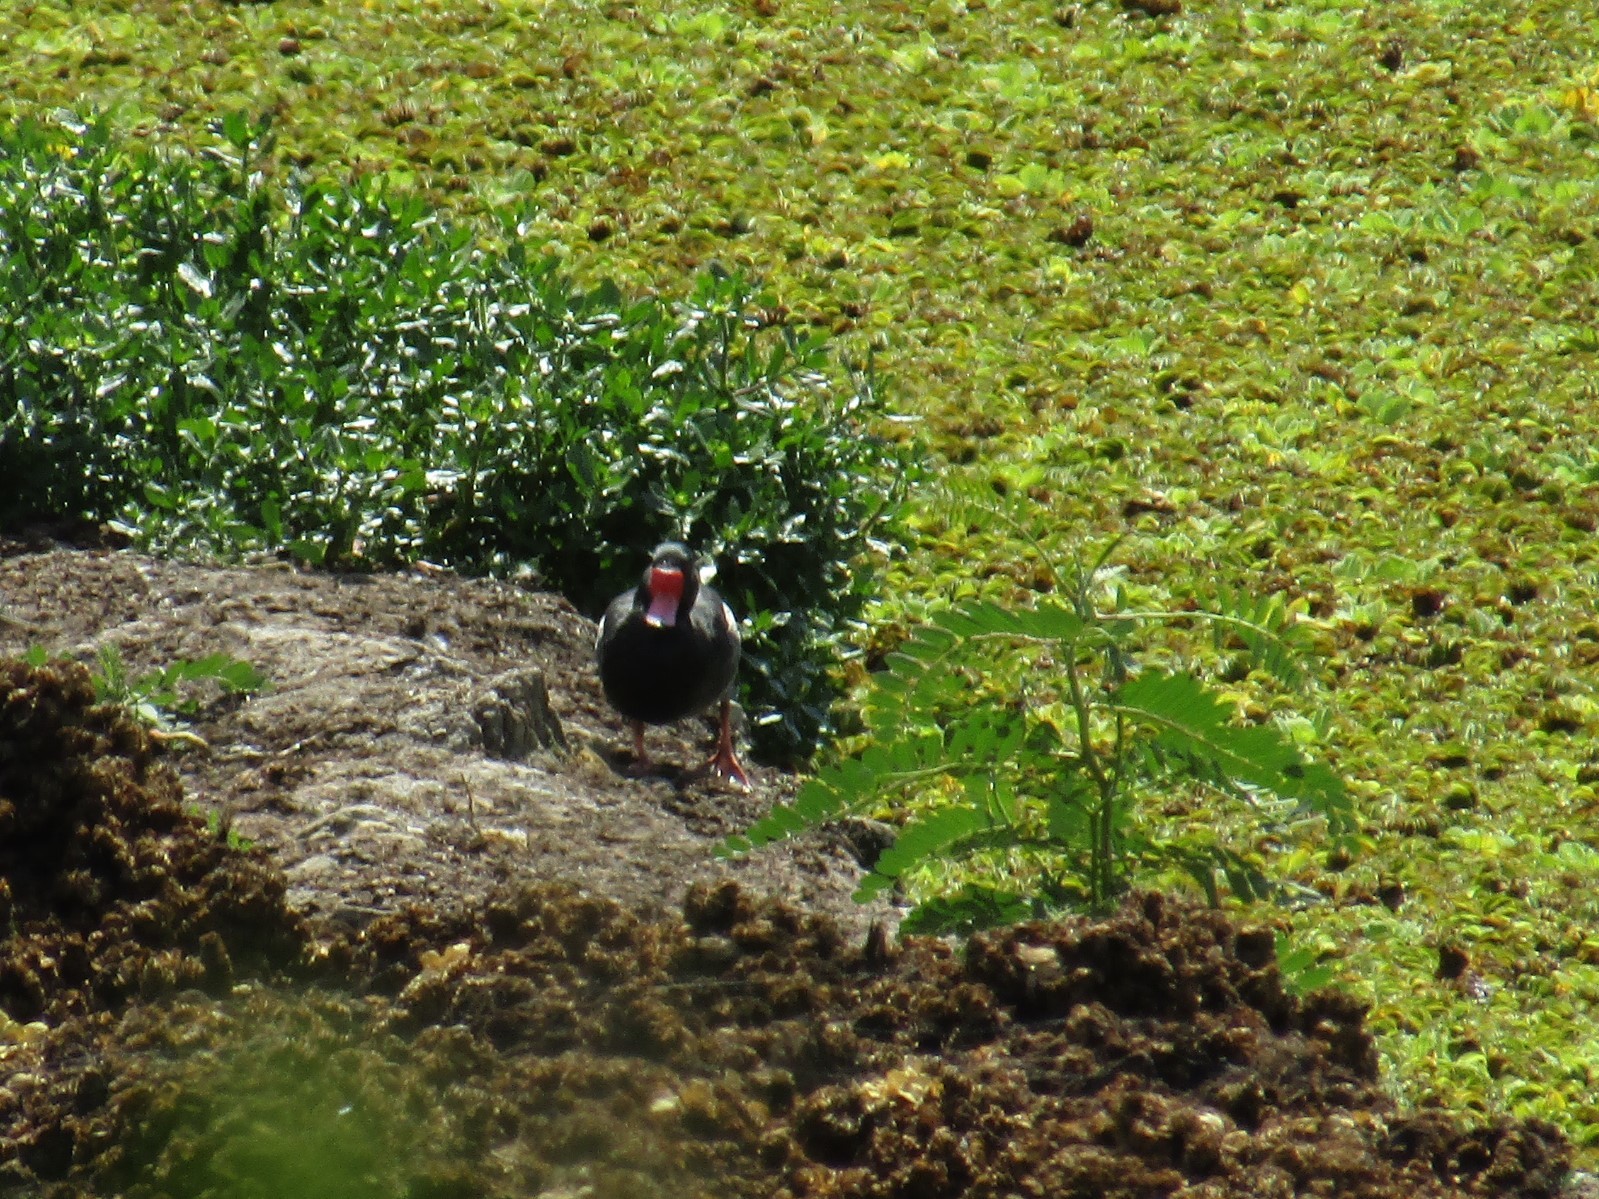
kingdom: Animalia
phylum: Chordata
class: Aves
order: Anseriformes
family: Anatidae
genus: Netta
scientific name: Netta peposaca
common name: Rosy-billed pochard
